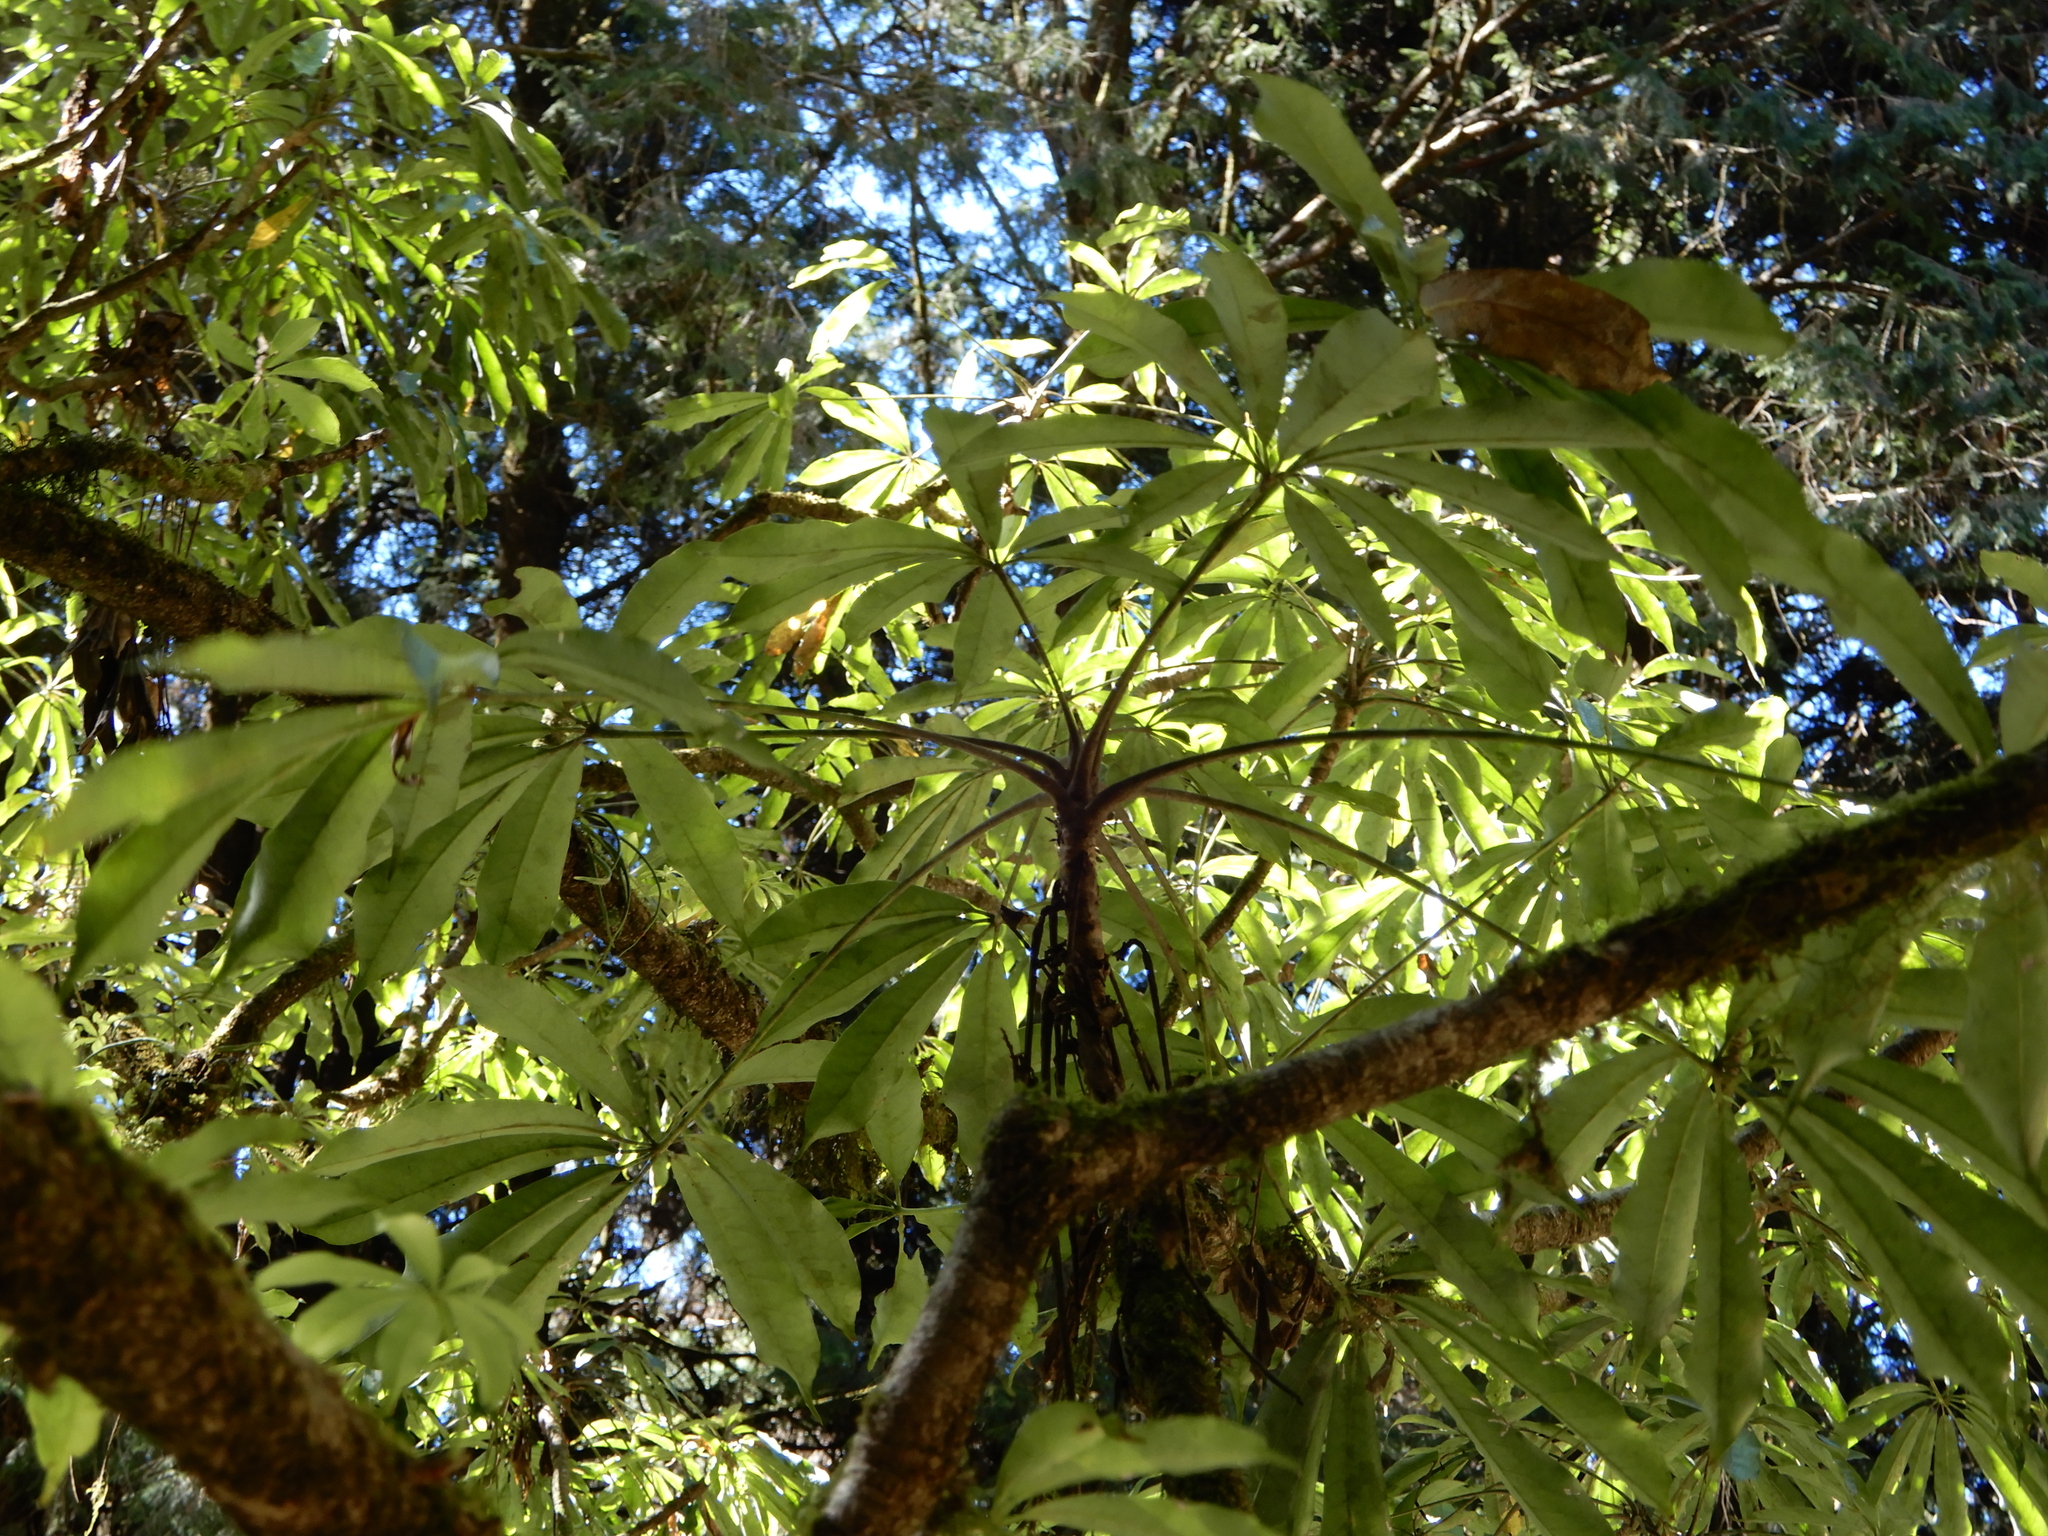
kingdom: Plantae
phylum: Tracheophyta
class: Magnoliopsida
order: Apiales
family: Araliaceae
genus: Heptapleurum
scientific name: Heptapleurum taiwanianum
